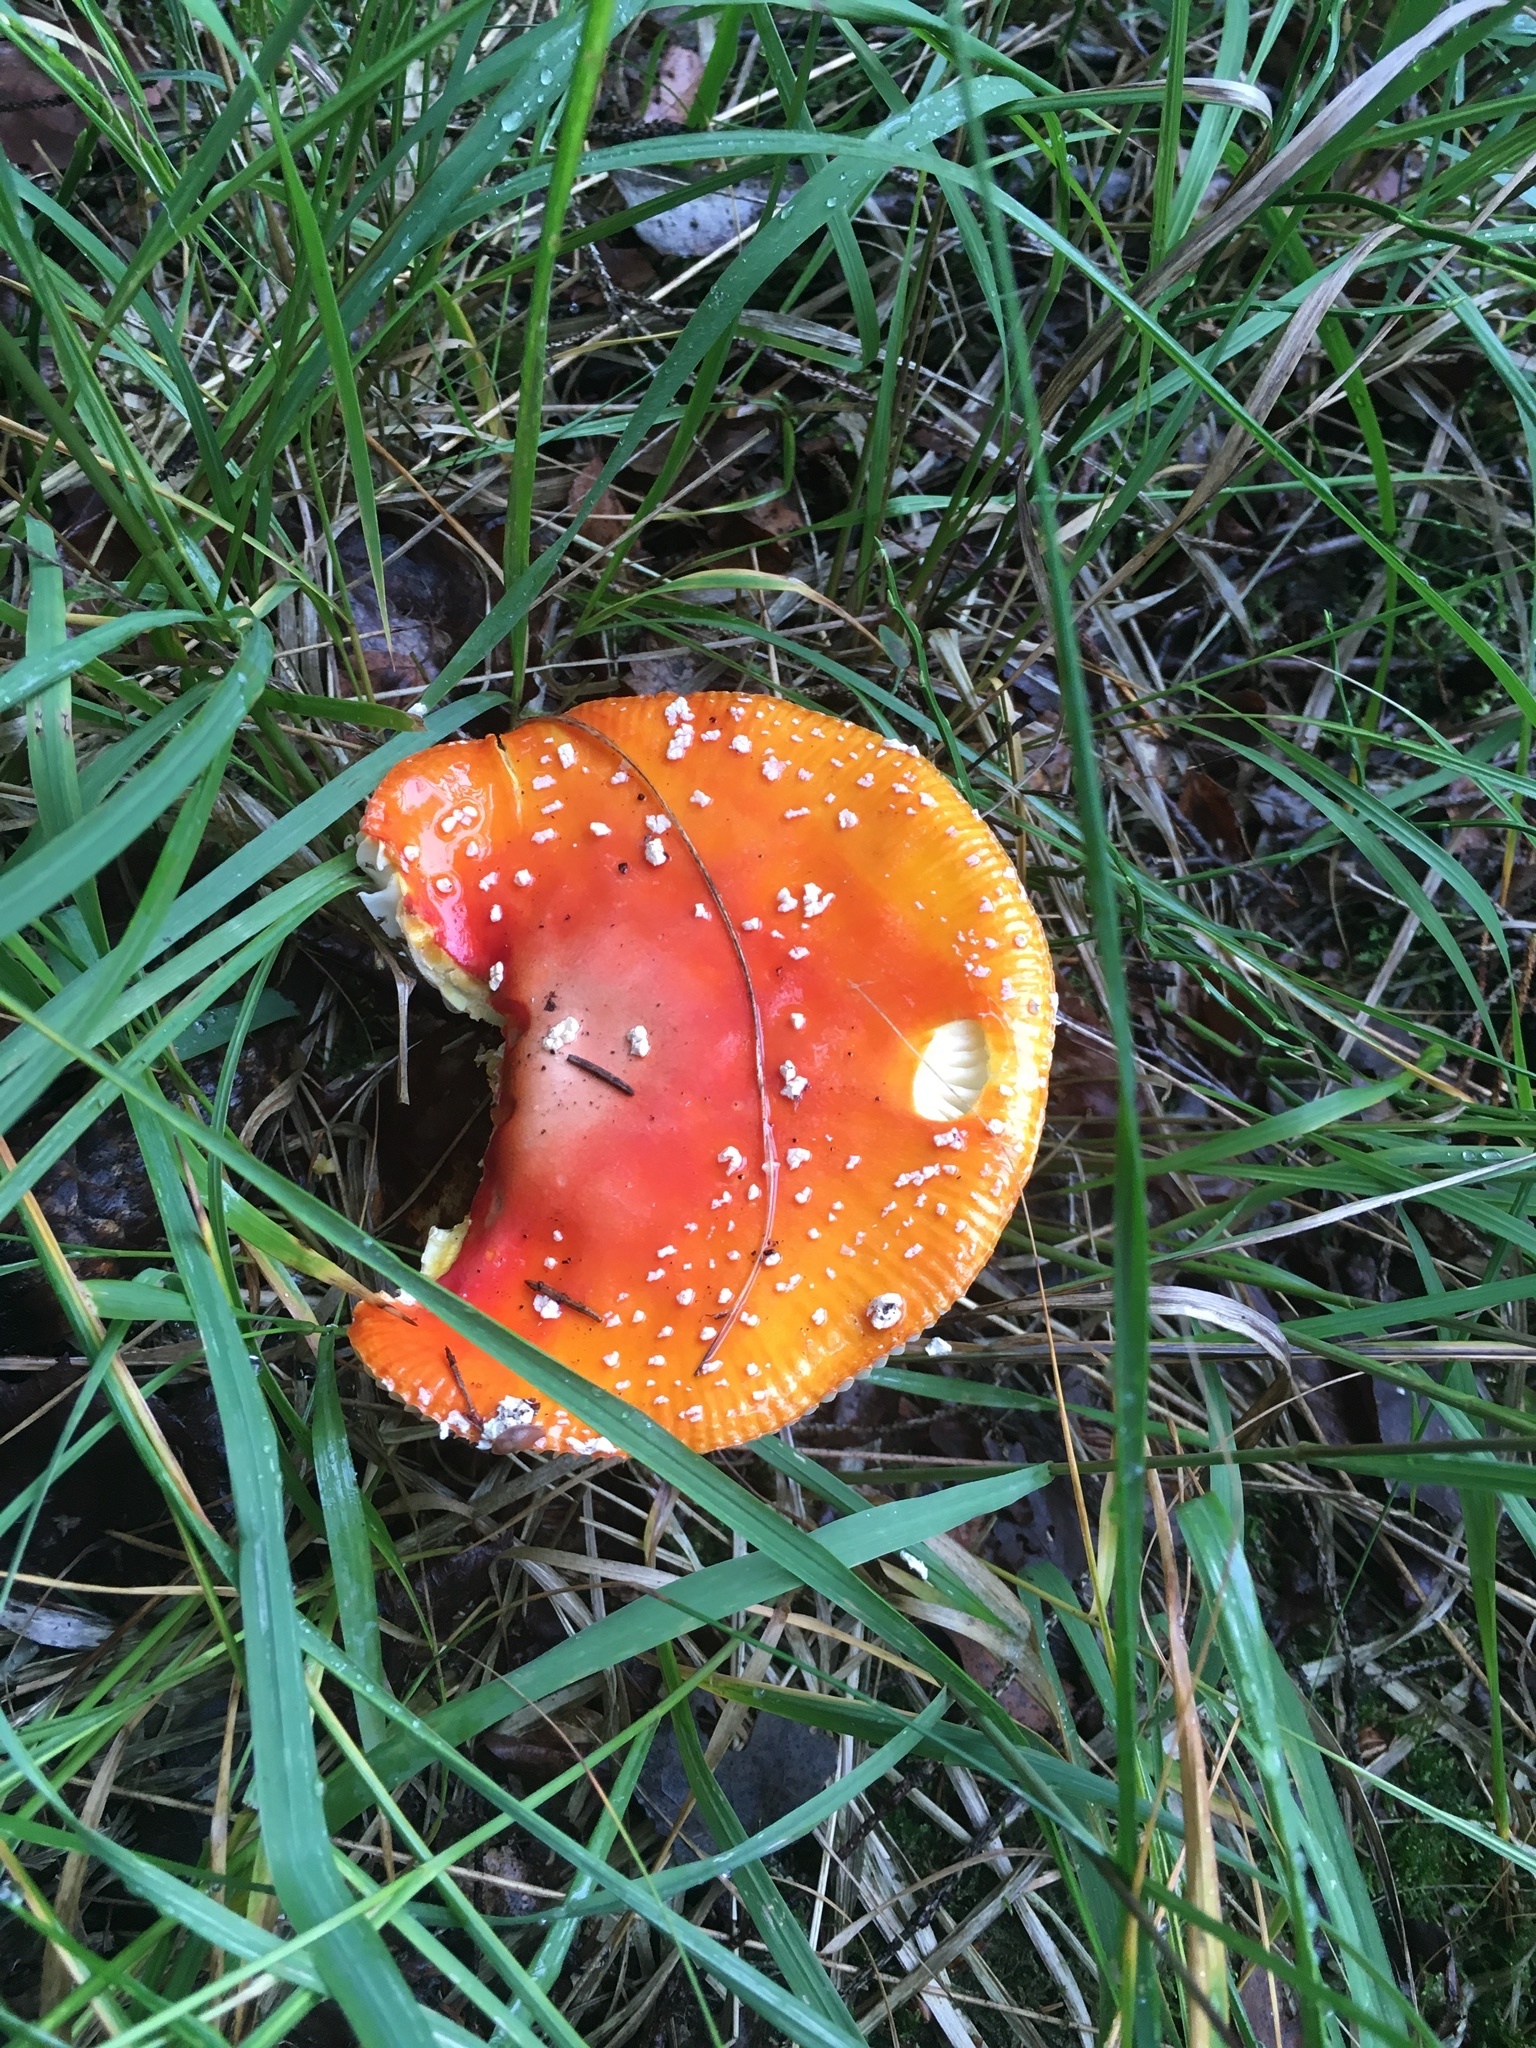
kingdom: Fungi
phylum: Basidiomycota
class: Agaricomycetes
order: Agaricales
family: Amanitaceae
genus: Amanita
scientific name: Amanita muscaria
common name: Fly agaric
